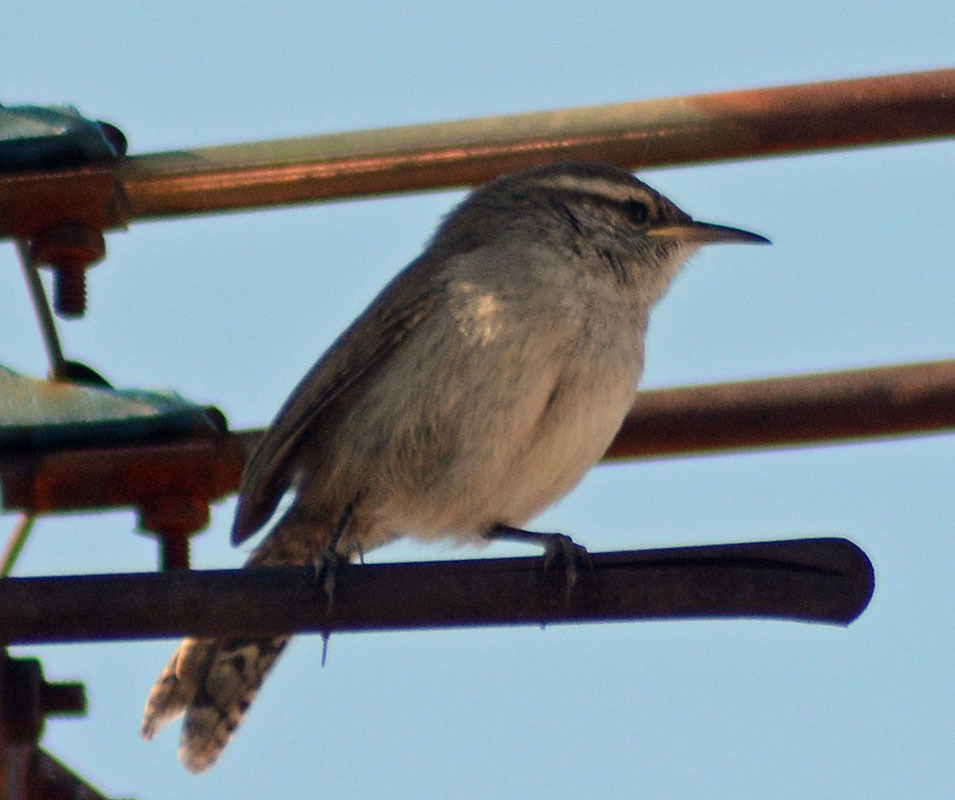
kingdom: Animalia
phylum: Chordata
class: Aves
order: Passeriformes
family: Troglodytidae
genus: Thryomanes
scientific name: Thryomanes bewickii
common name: Bewick's wren
